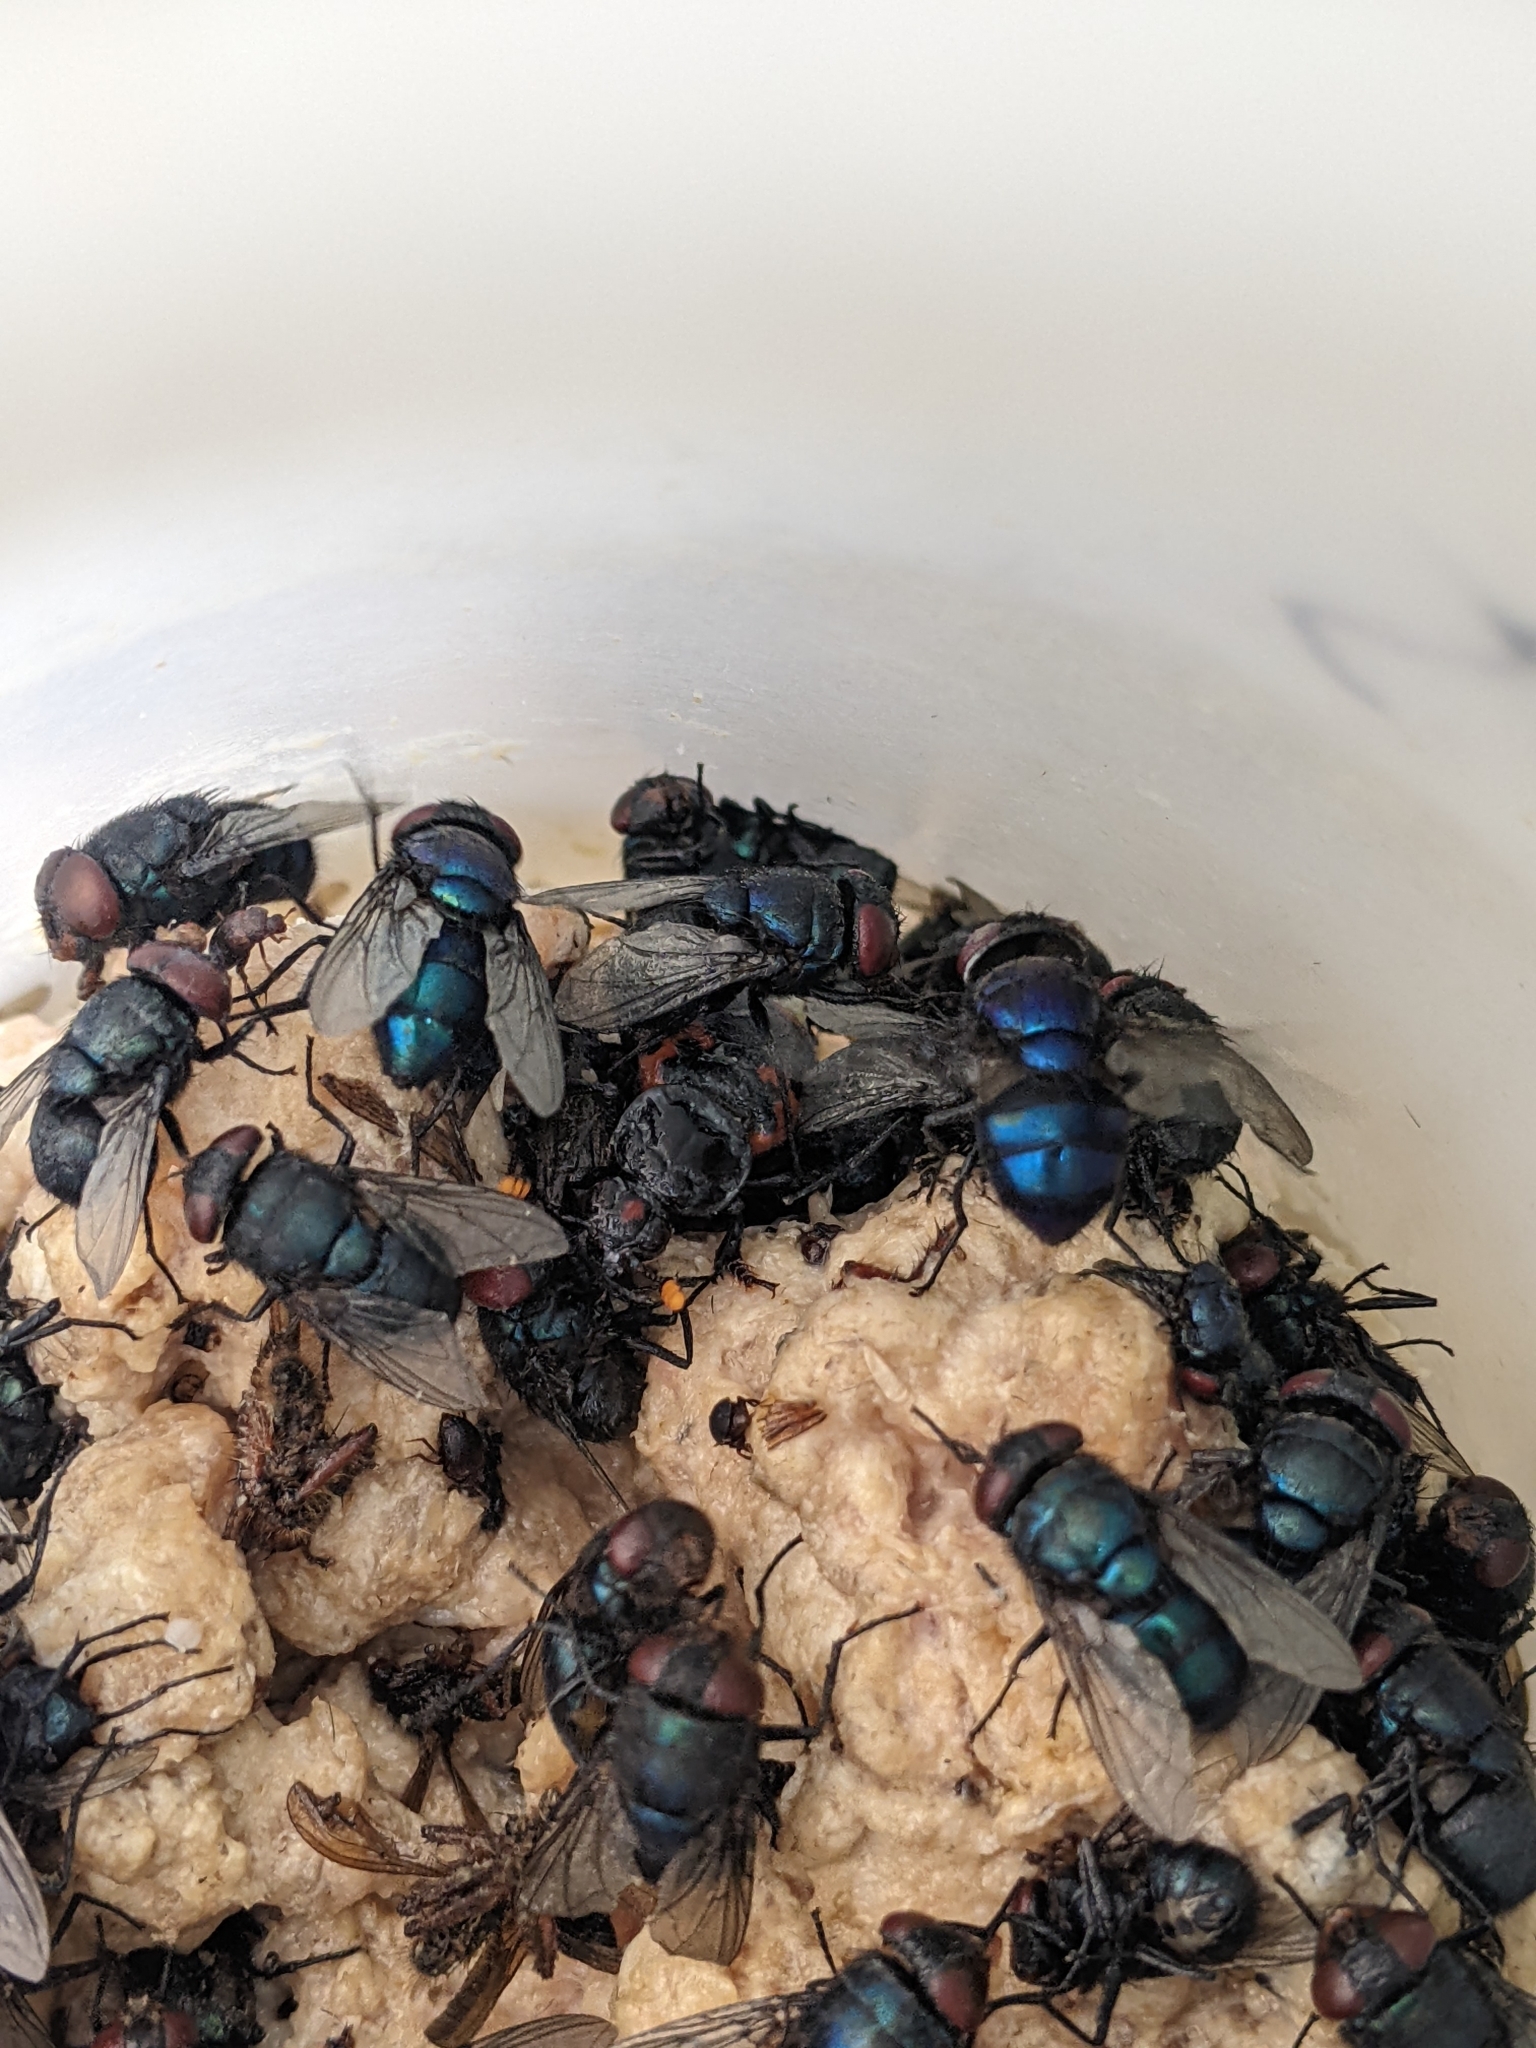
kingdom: Animalia
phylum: Arthropoda
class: Insecta
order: Coleoptera
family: Staphylinidae
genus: Nicrophorus
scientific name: Nicrophorus nepalensis
